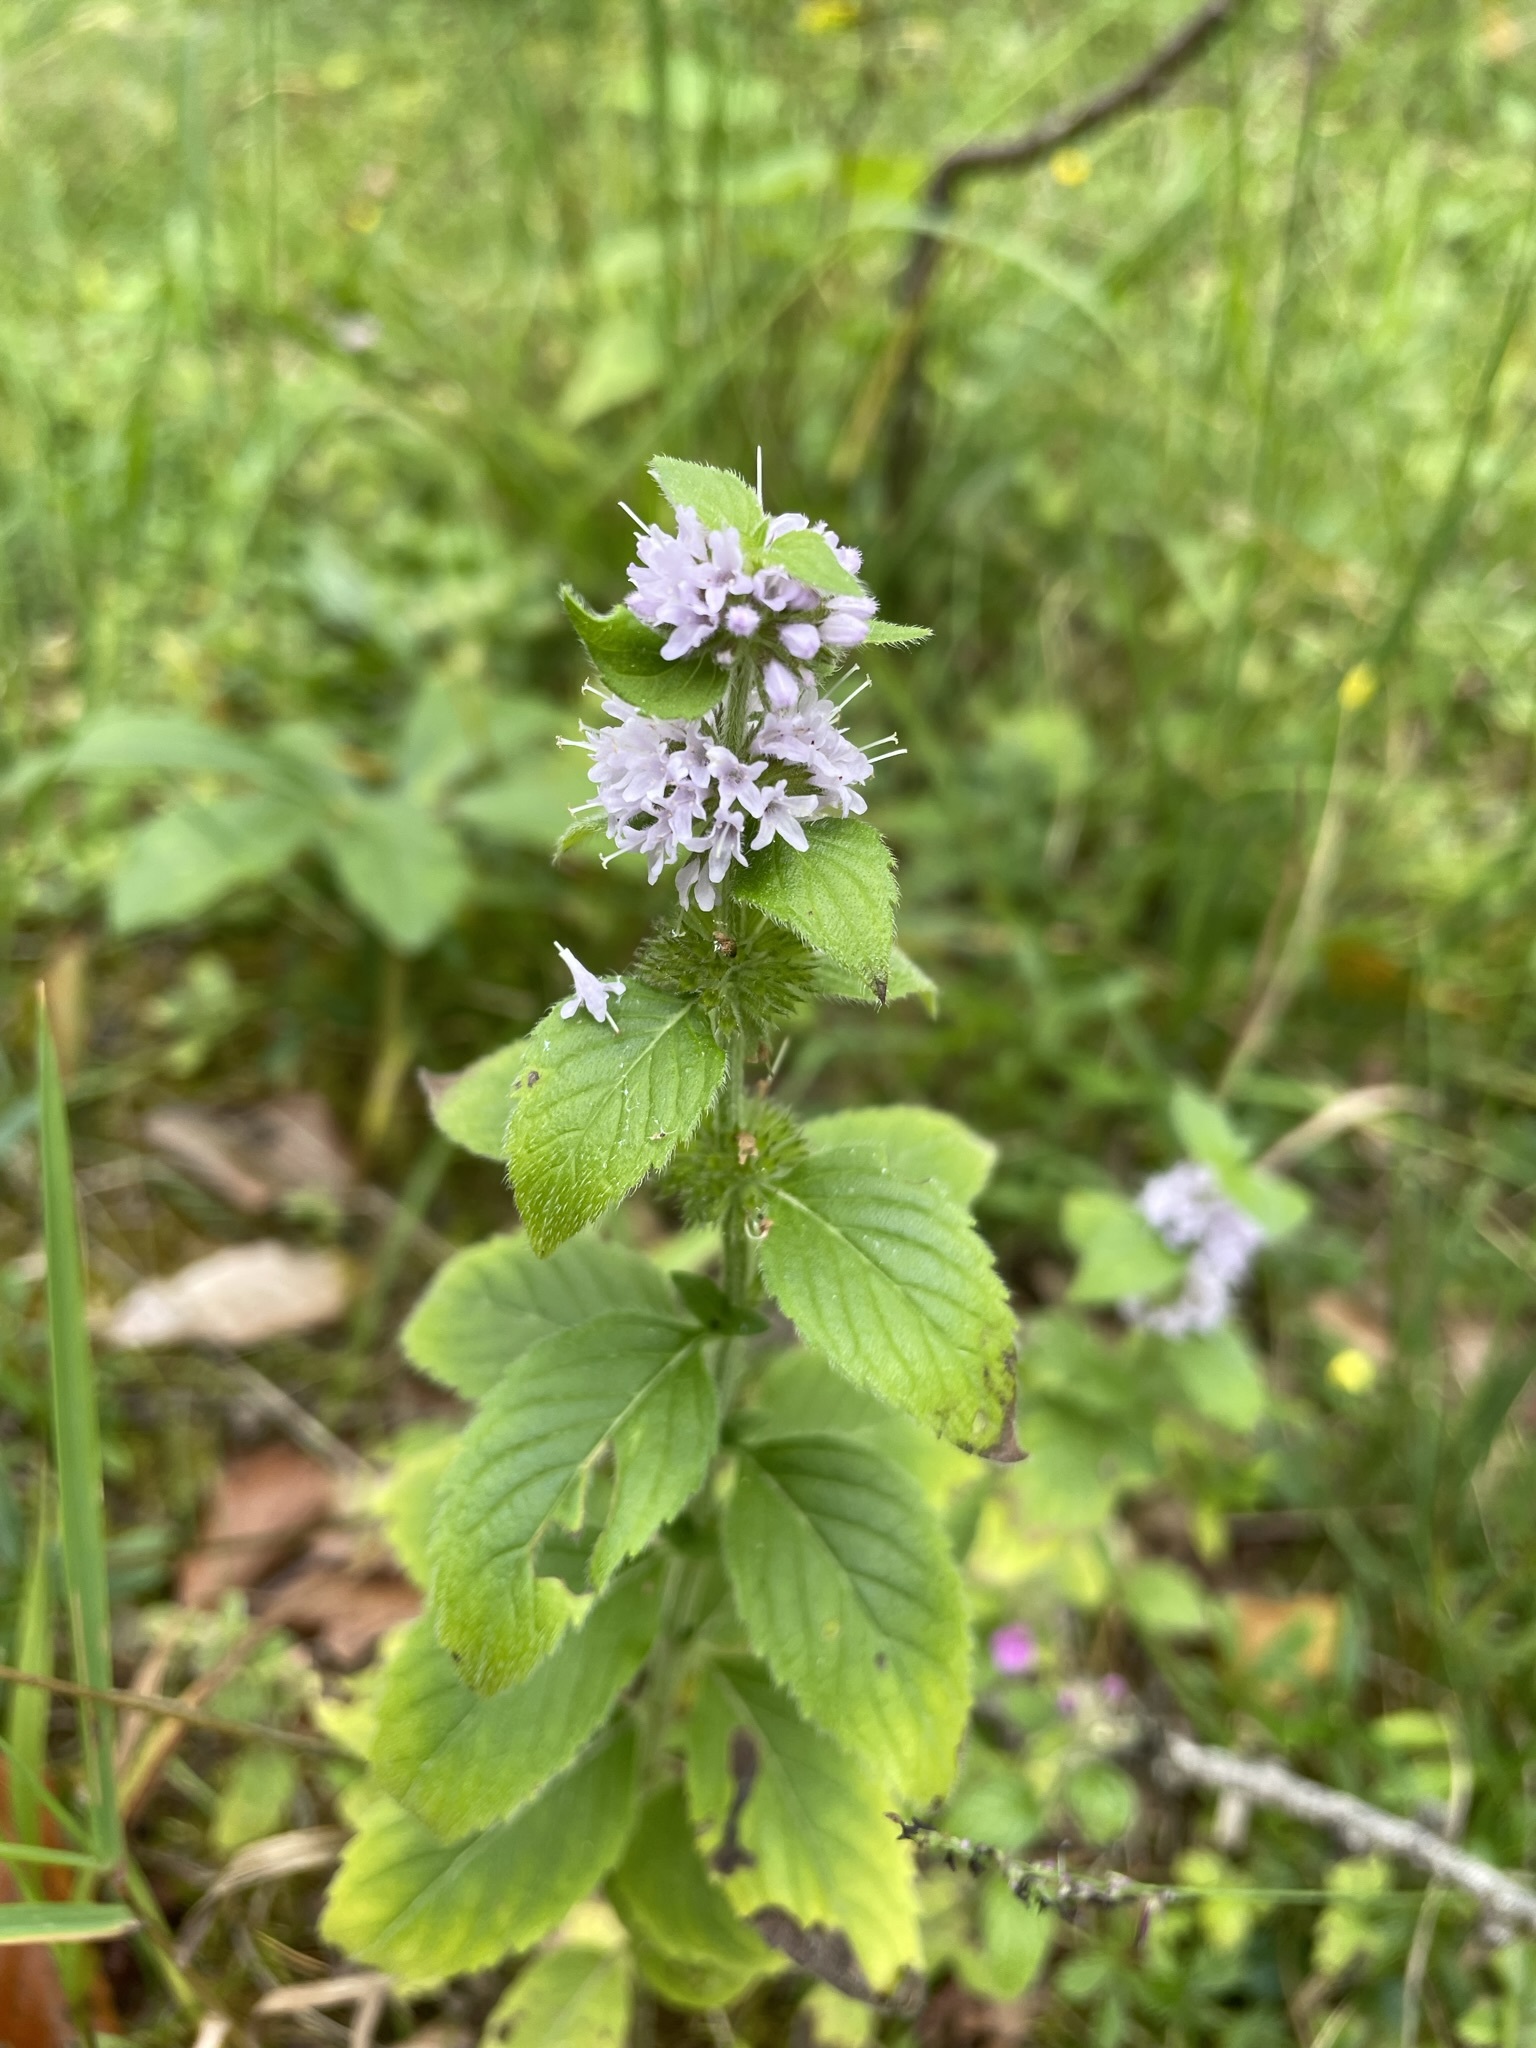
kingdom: Plantae
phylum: Tracheophyta
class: Magnoliopsida
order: Lamiales
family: Lamiaceae
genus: Mentha
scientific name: Mentha verticillata
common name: Mint
